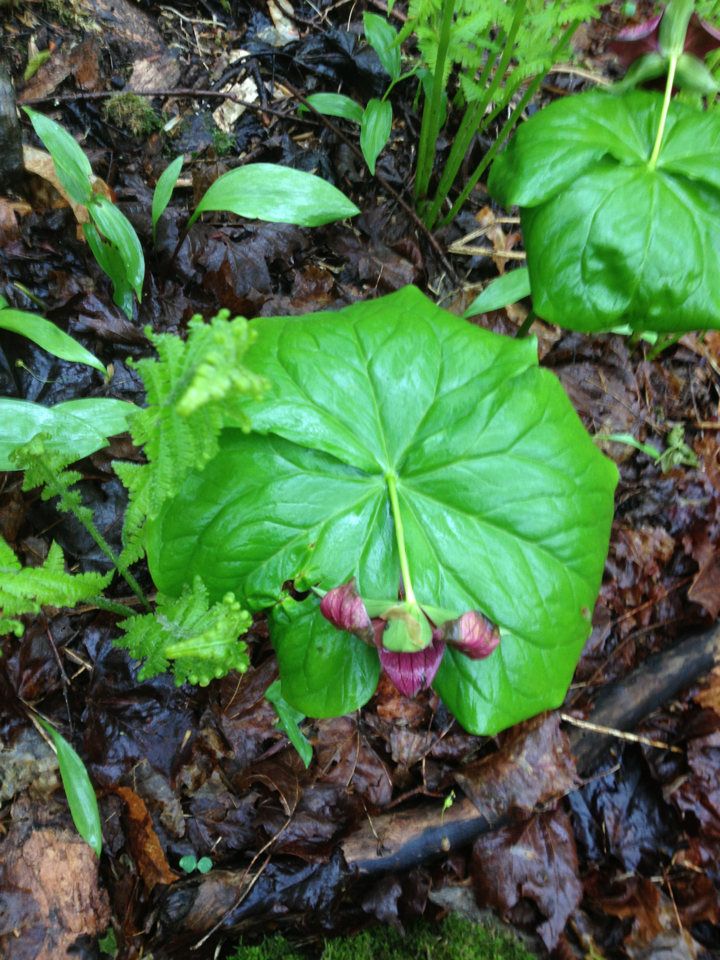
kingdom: Plantae
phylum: Tracheophyta
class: Liliopsida
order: Liliales
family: Melanthiaceae
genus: Trillium
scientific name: Trillium erectum
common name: Purple trillium
